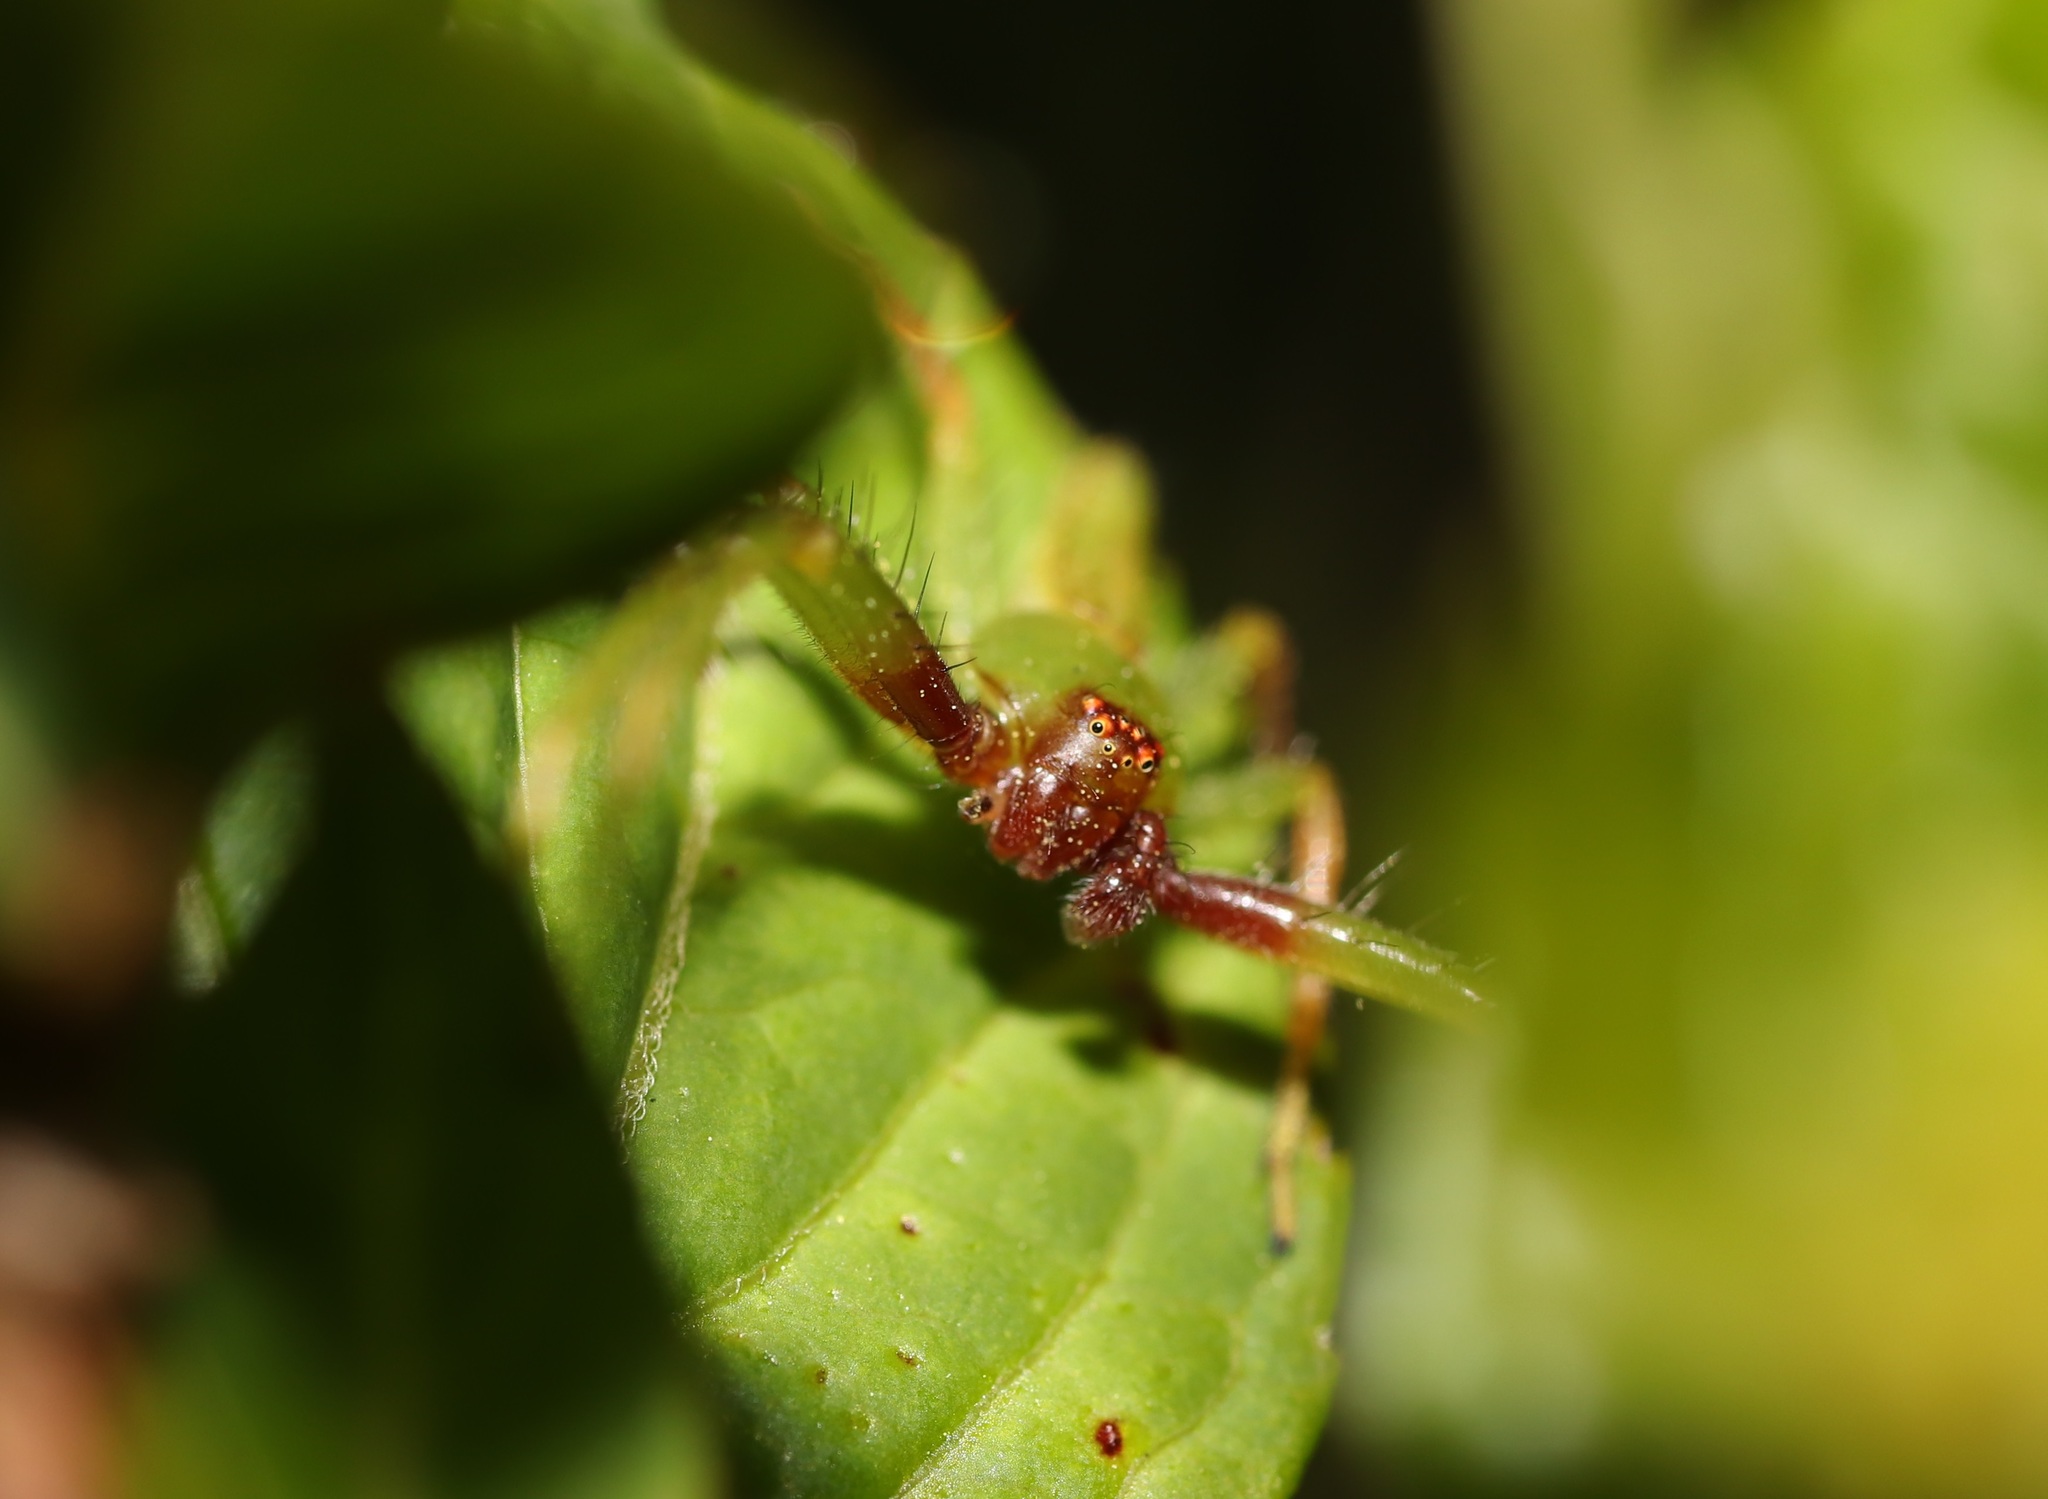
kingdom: Animalia
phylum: Arthropoda
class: Arachnida
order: Araneae
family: Thomisidae
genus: Oxytate
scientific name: Oxytate striatipes
